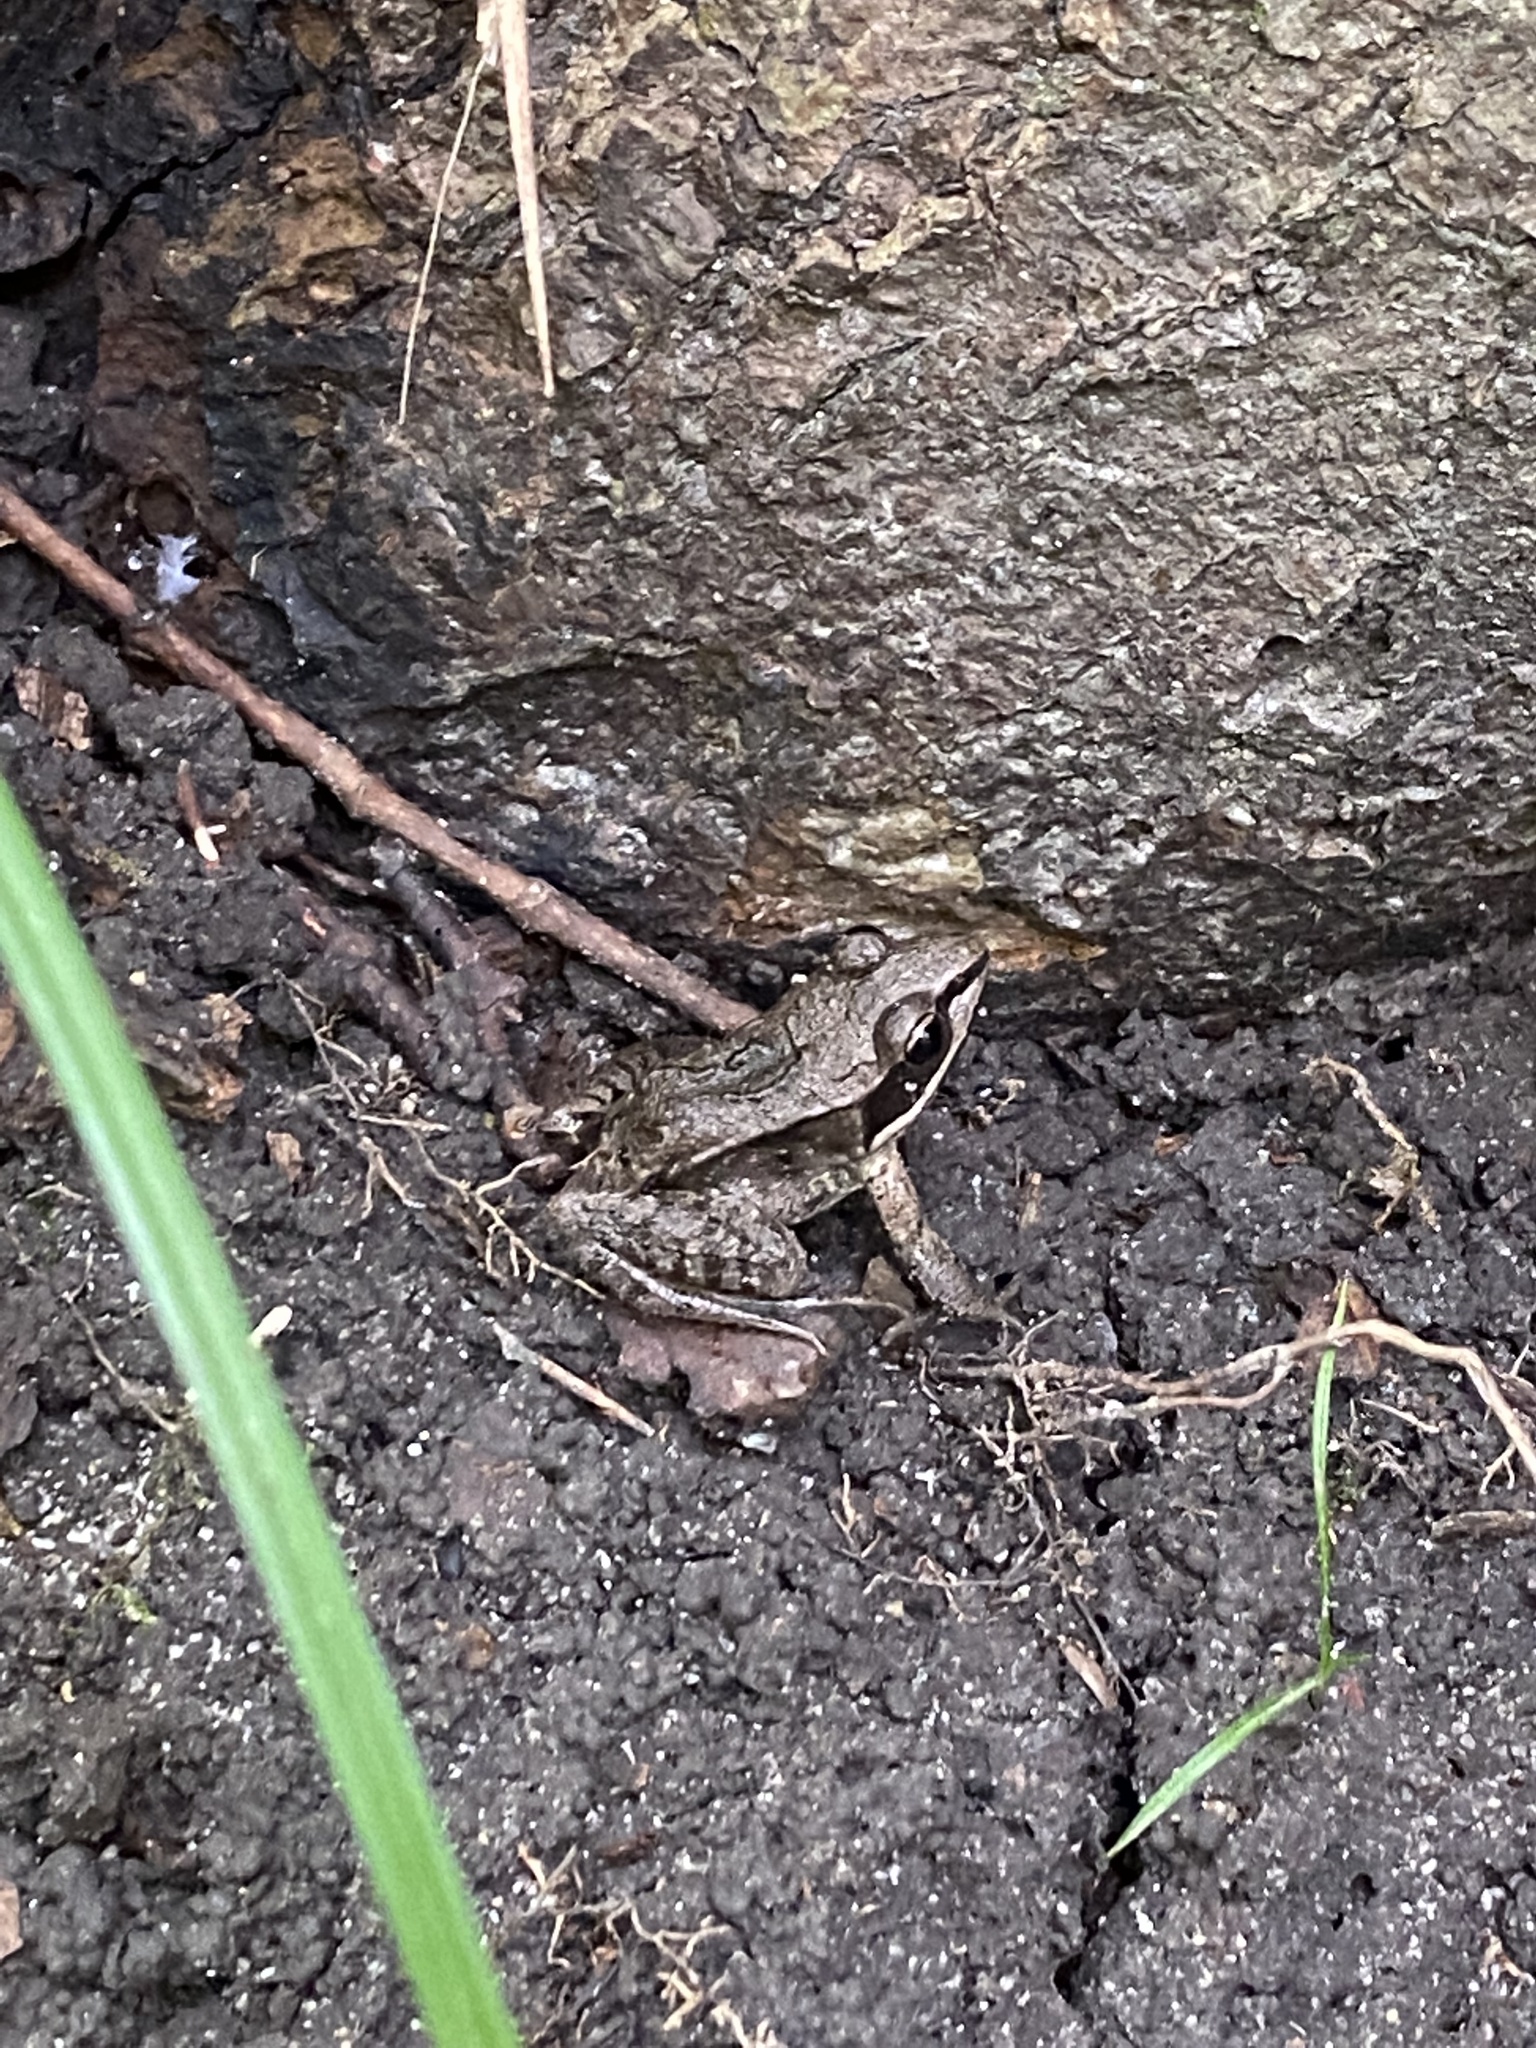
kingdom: Animalia
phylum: Chordata
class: Amphibia
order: Anura
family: Ranidae
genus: Lithobates
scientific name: Lithobates sylvaticus
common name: Wood frog
